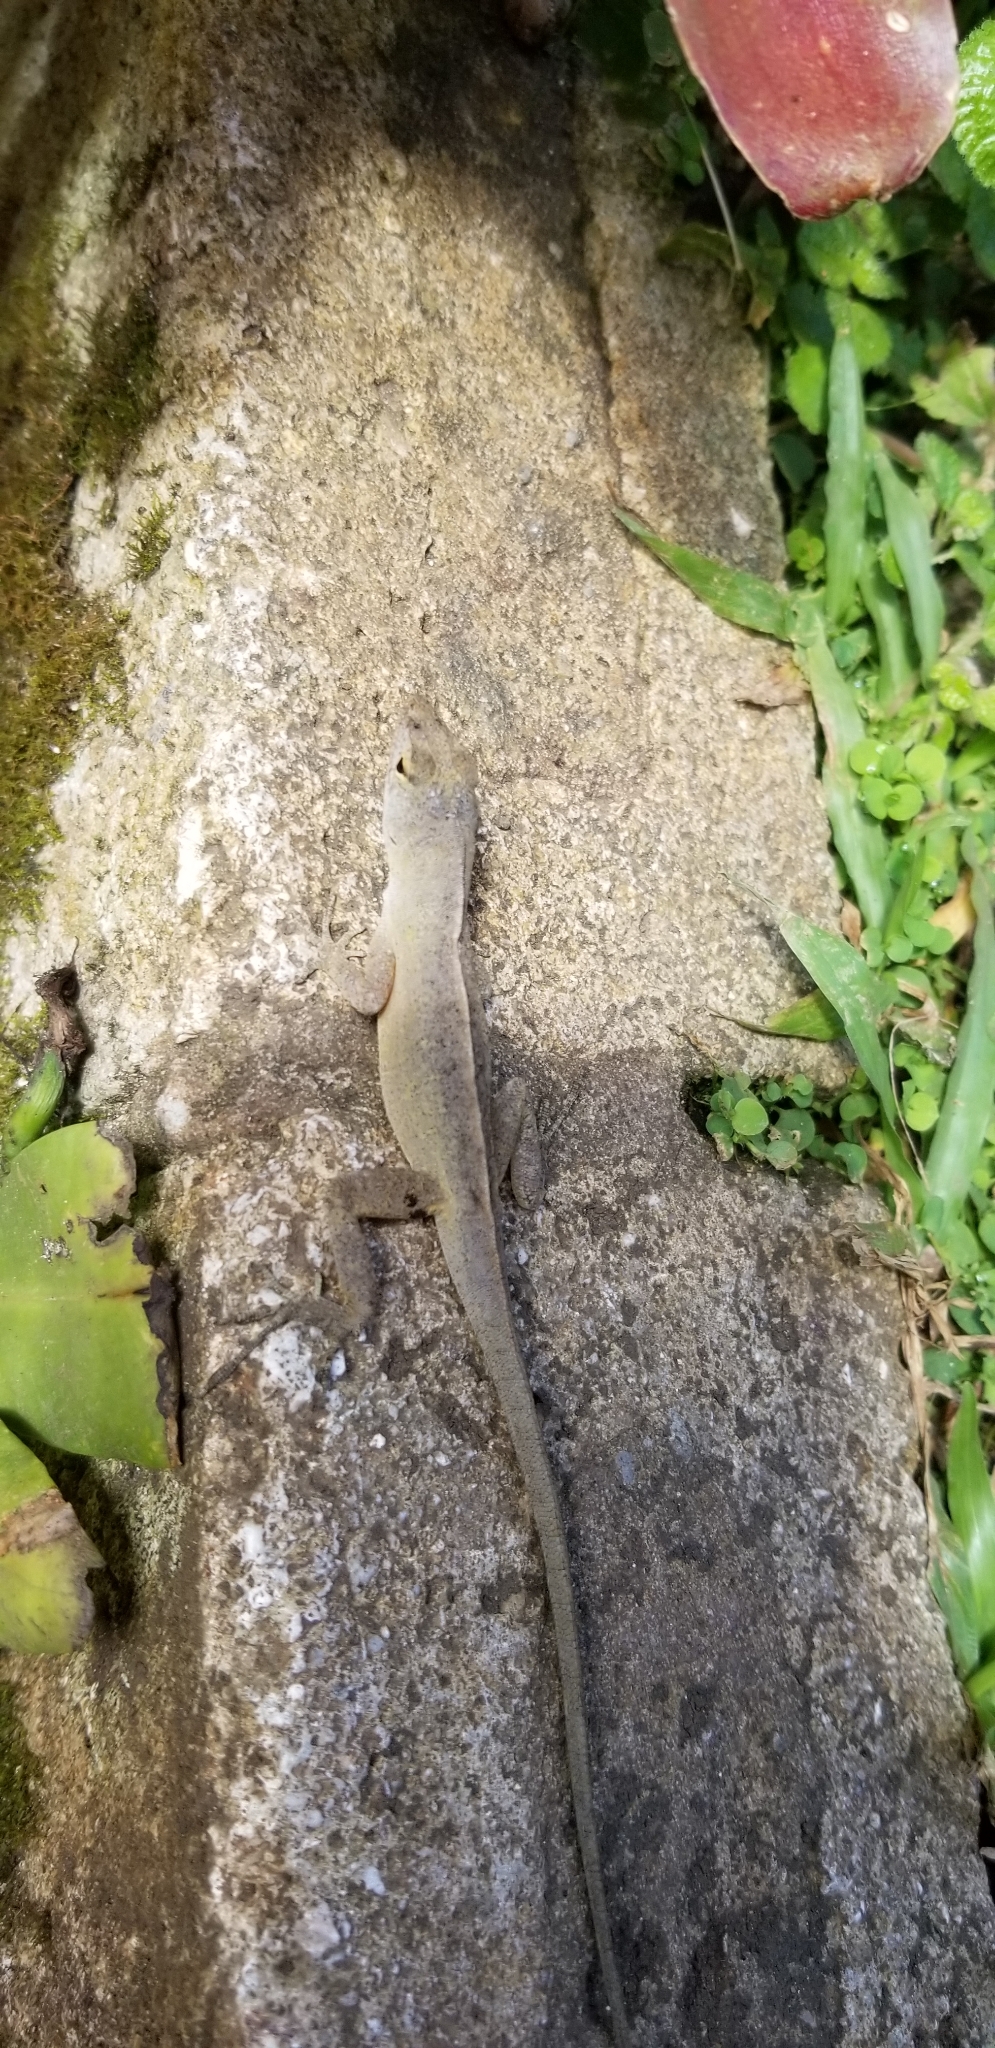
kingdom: Animalia
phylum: Chordata
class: Squamata
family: Dactyloidae
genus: Anolis
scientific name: Anolis sagrei
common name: Brown anole
